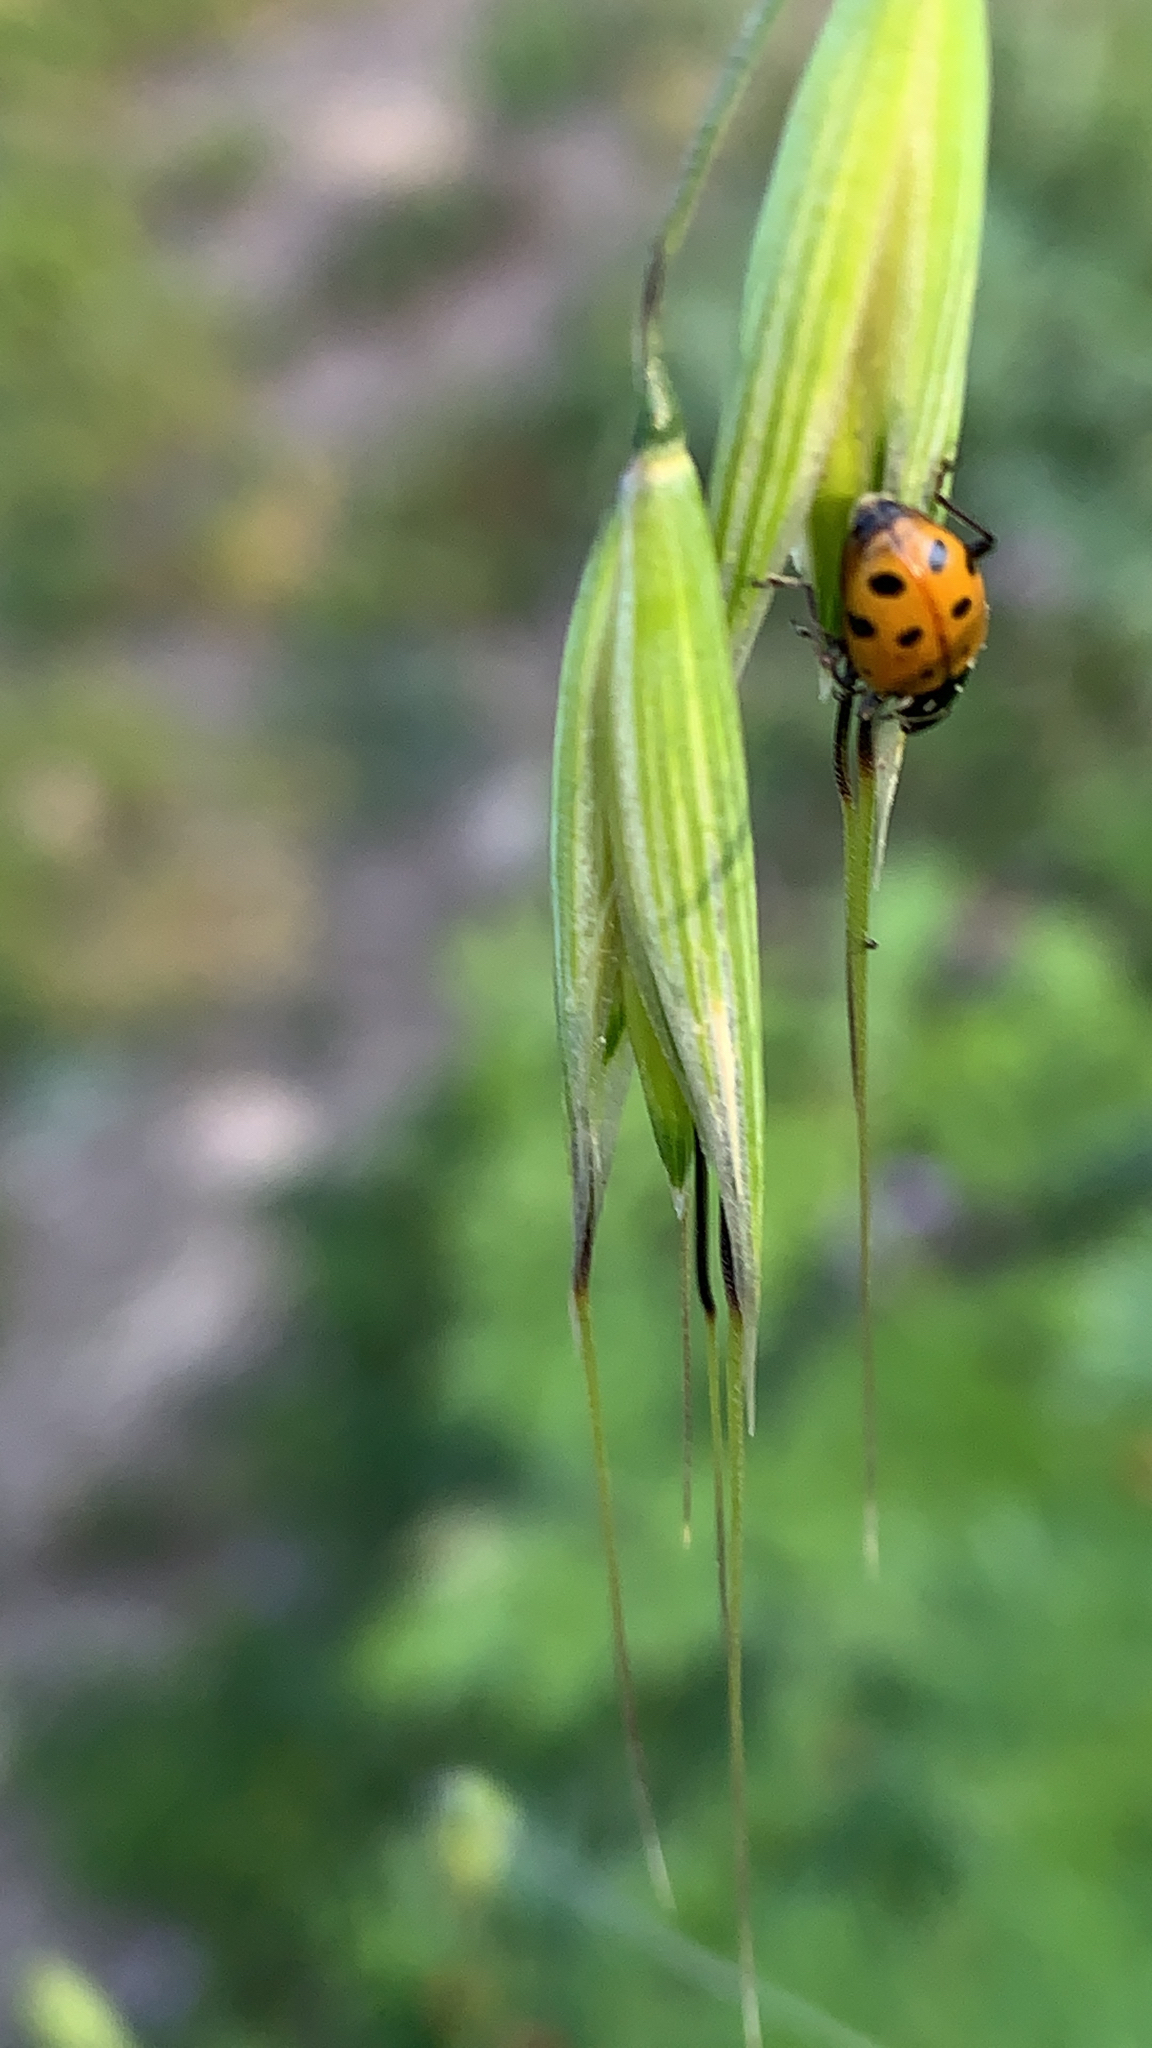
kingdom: Animalia
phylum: Arthropoda
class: Insecta
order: Coleoptera
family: Coccinellidae
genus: Hippodamia
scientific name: Hippodamia convergens
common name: Convergent lady beetle
